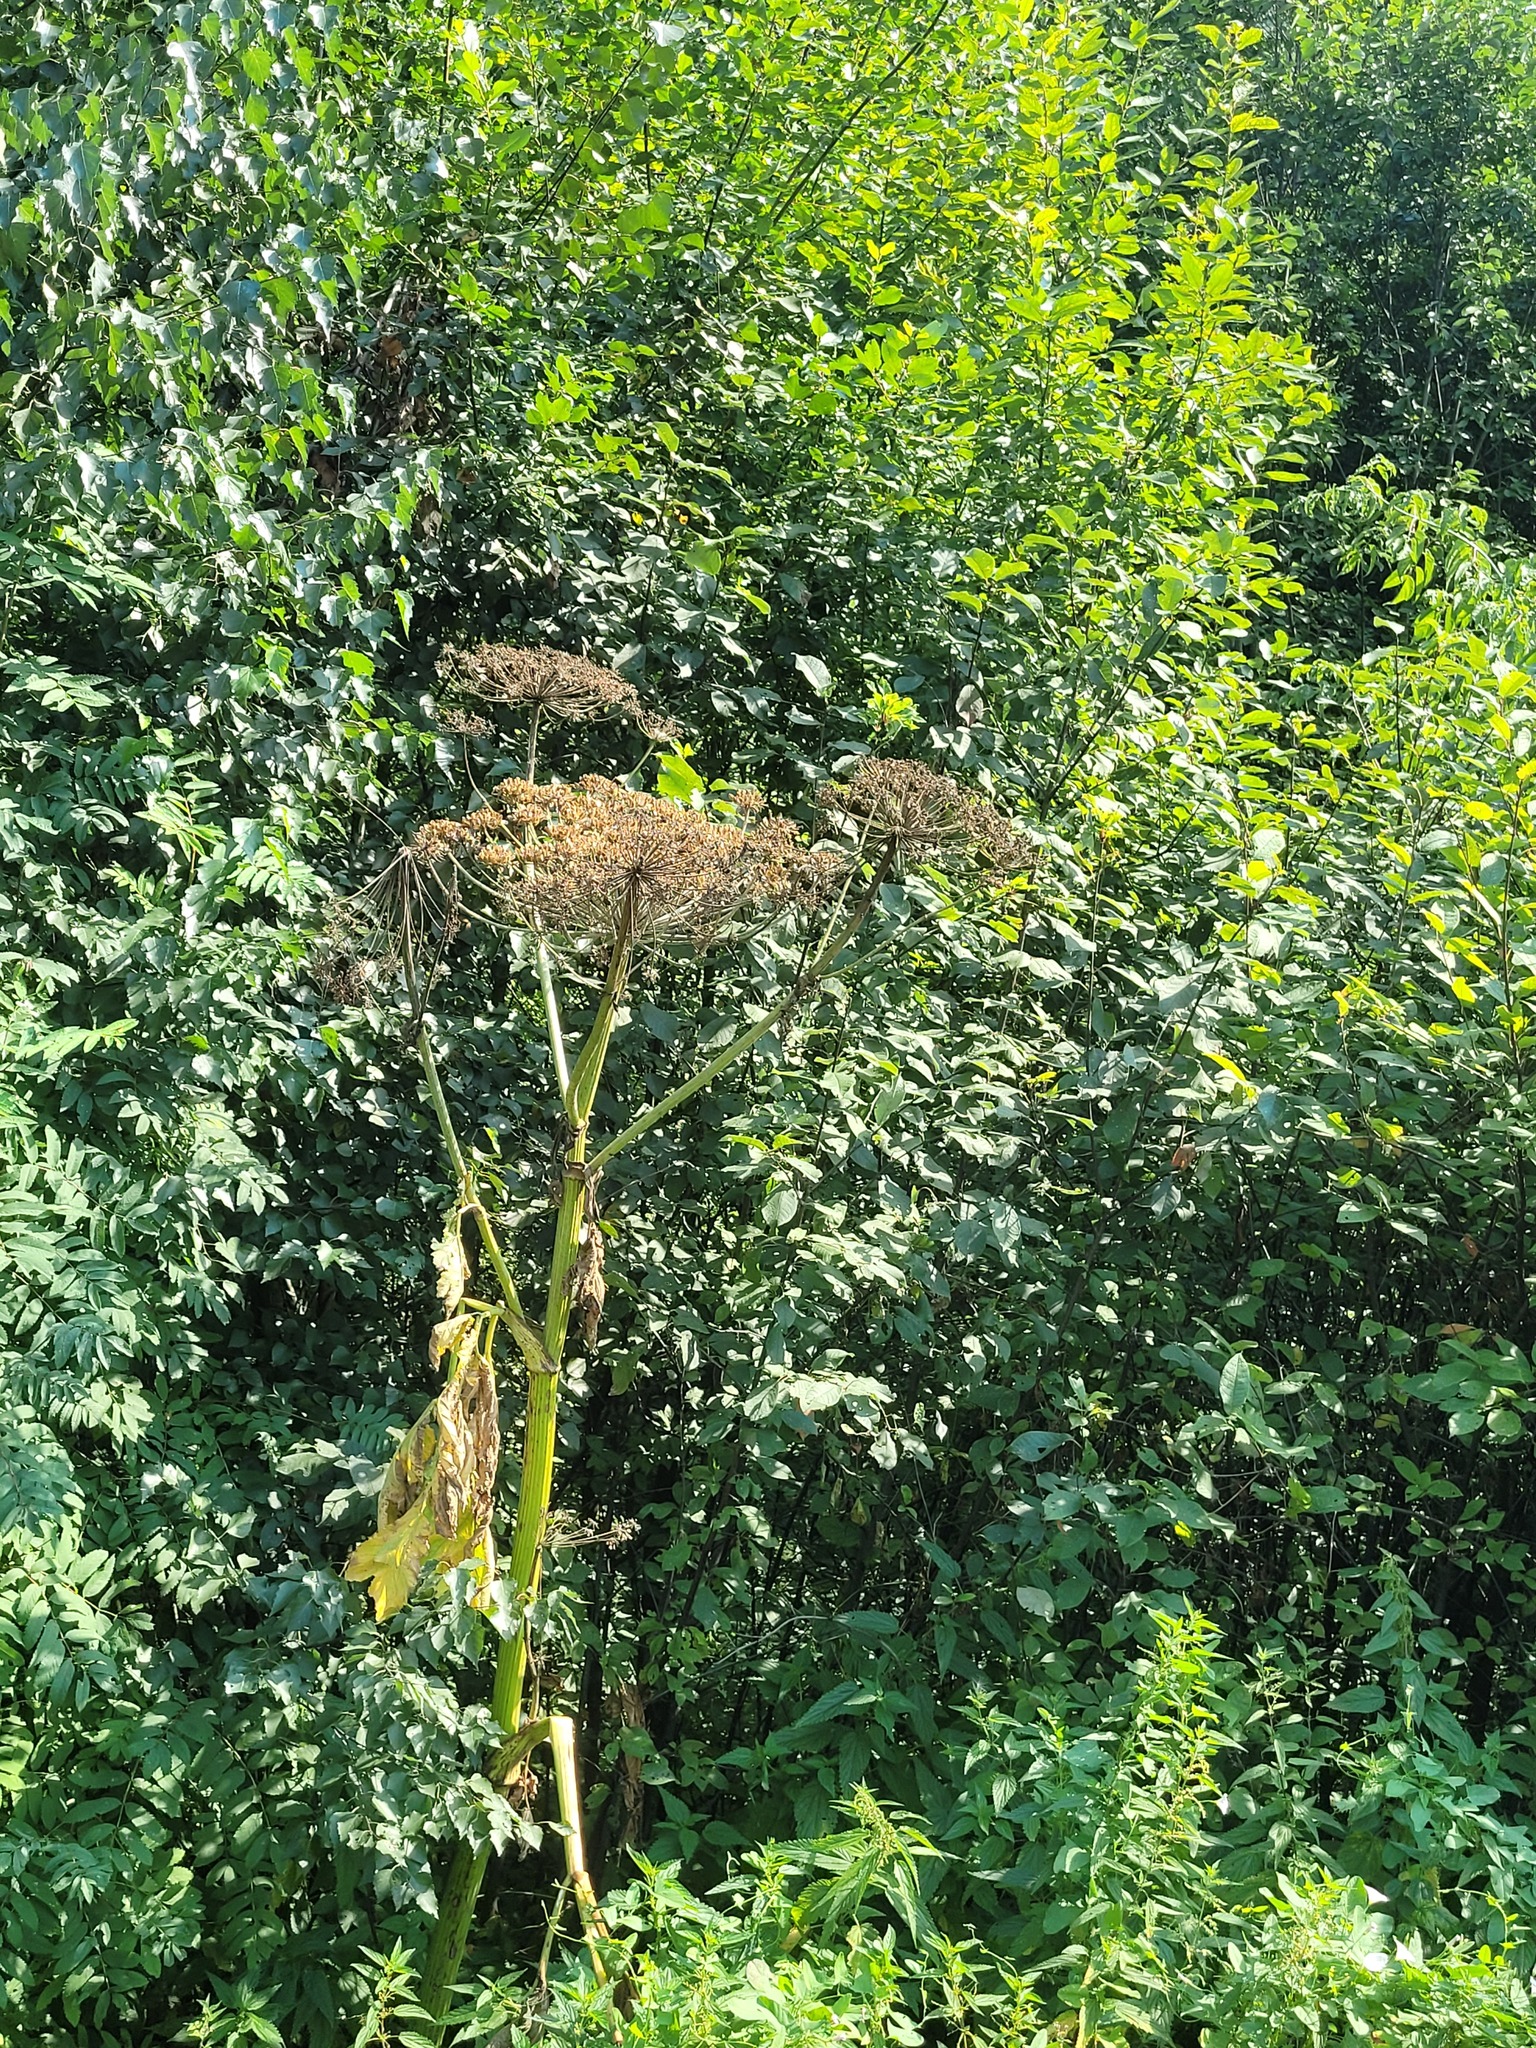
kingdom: Plantae
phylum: Tracheophyta
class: Magnoliopsida
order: Apiales
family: Apiaceae
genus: Heracleum
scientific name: Heracleum sosnowskyi
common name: Sosnowsky's hogweed
